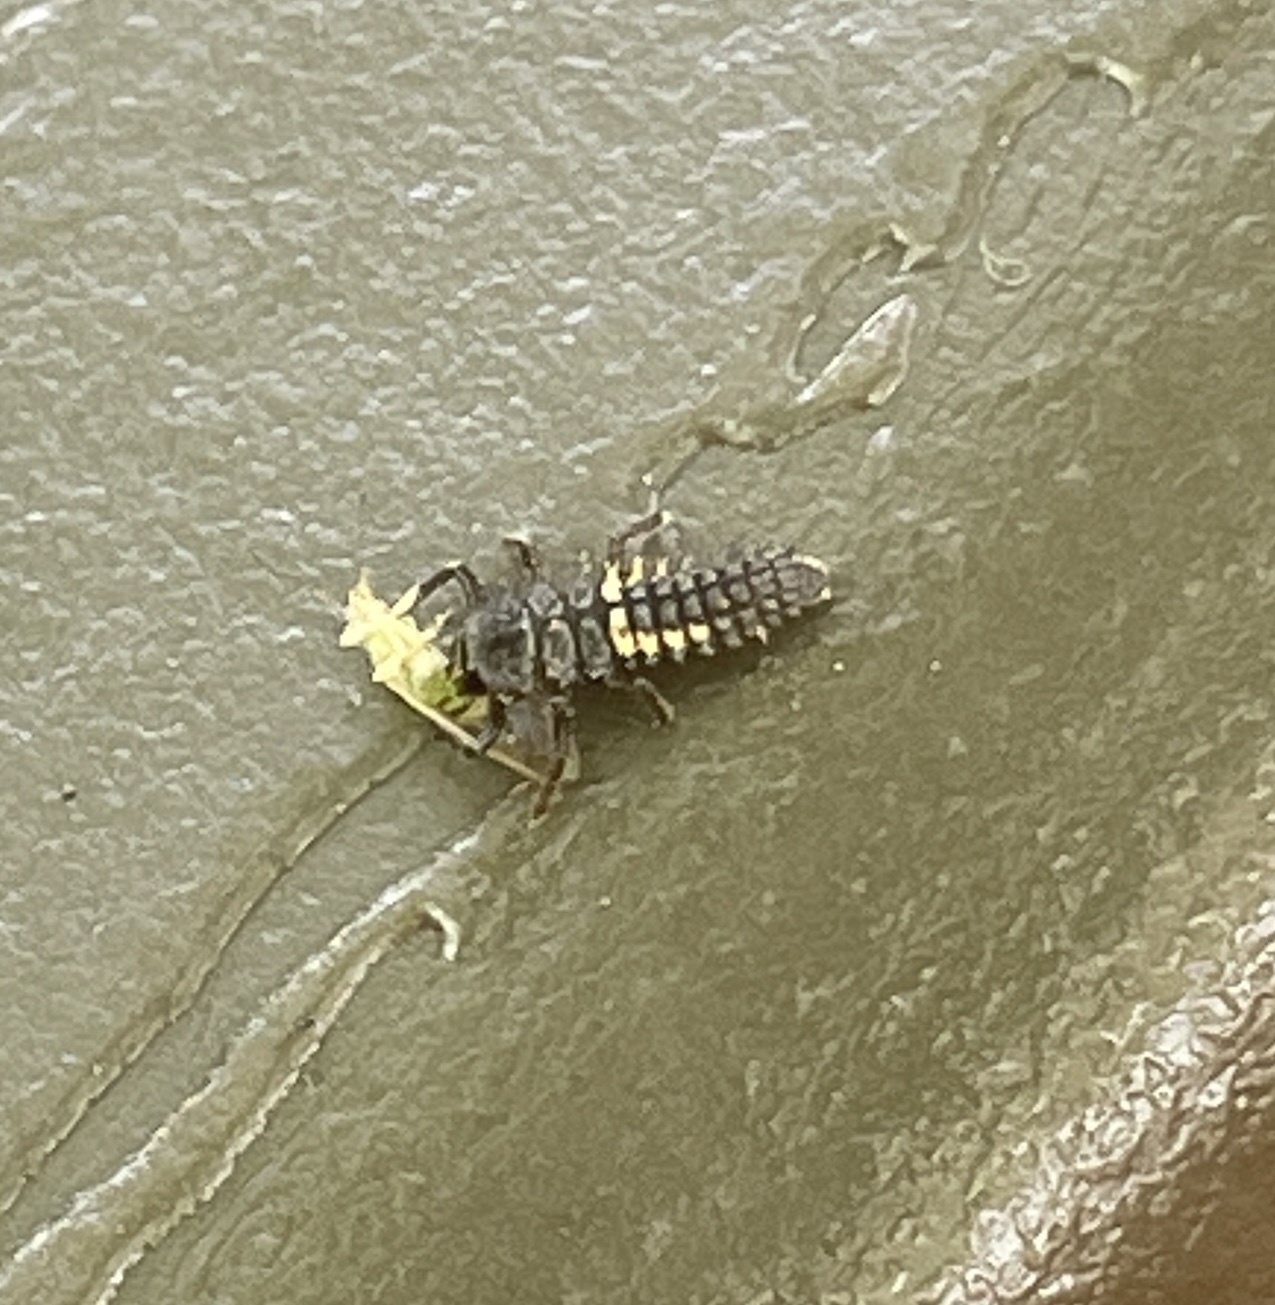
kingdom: Animalia
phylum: Arthropoda
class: Insecta
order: Coleoptera
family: Coccinellidae
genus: Harmonia
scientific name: Harmonia axyridis
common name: Harlequin ladybird
